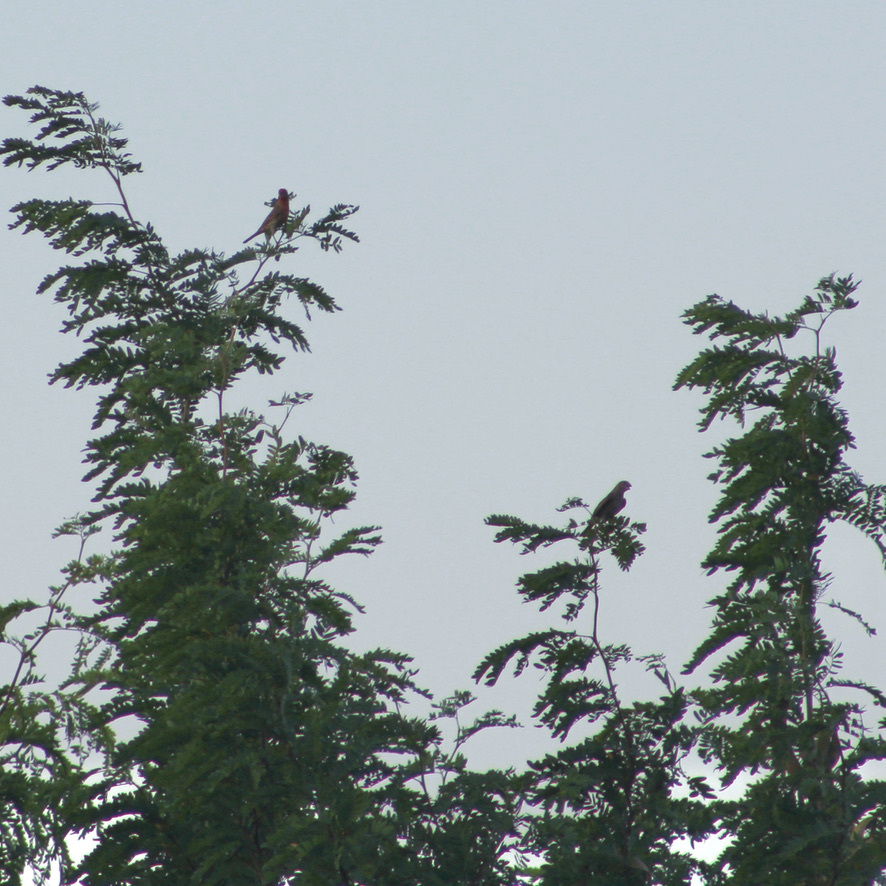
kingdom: Animalia
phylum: Chordata
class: Aves
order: Passeriformes
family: Fringillidae
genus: Haemorhous
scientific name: Haemorhous mexicanus
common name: House finch
